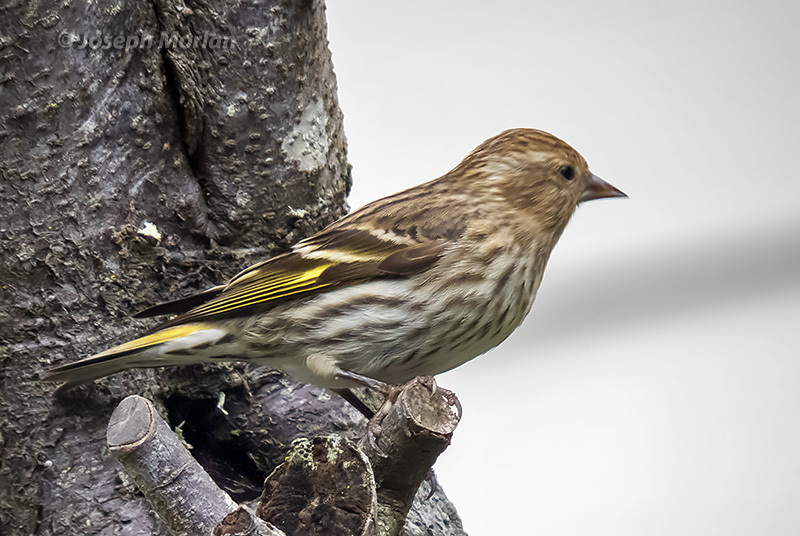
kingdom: Animalia
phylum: Chordata
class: Aves
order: Passeriformes
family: Fringillidae
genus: Spinus
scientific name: Spinus pinus
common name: Pine siskin
